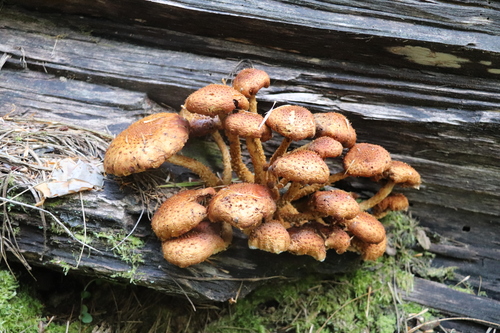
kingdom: Fungi
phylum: Basidiomycota
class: Agaricomycetes
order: Agaricales
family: Strophariaceae
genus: Pholiota
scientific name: Pholiota squarrosa
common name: Shaggy pholiota
